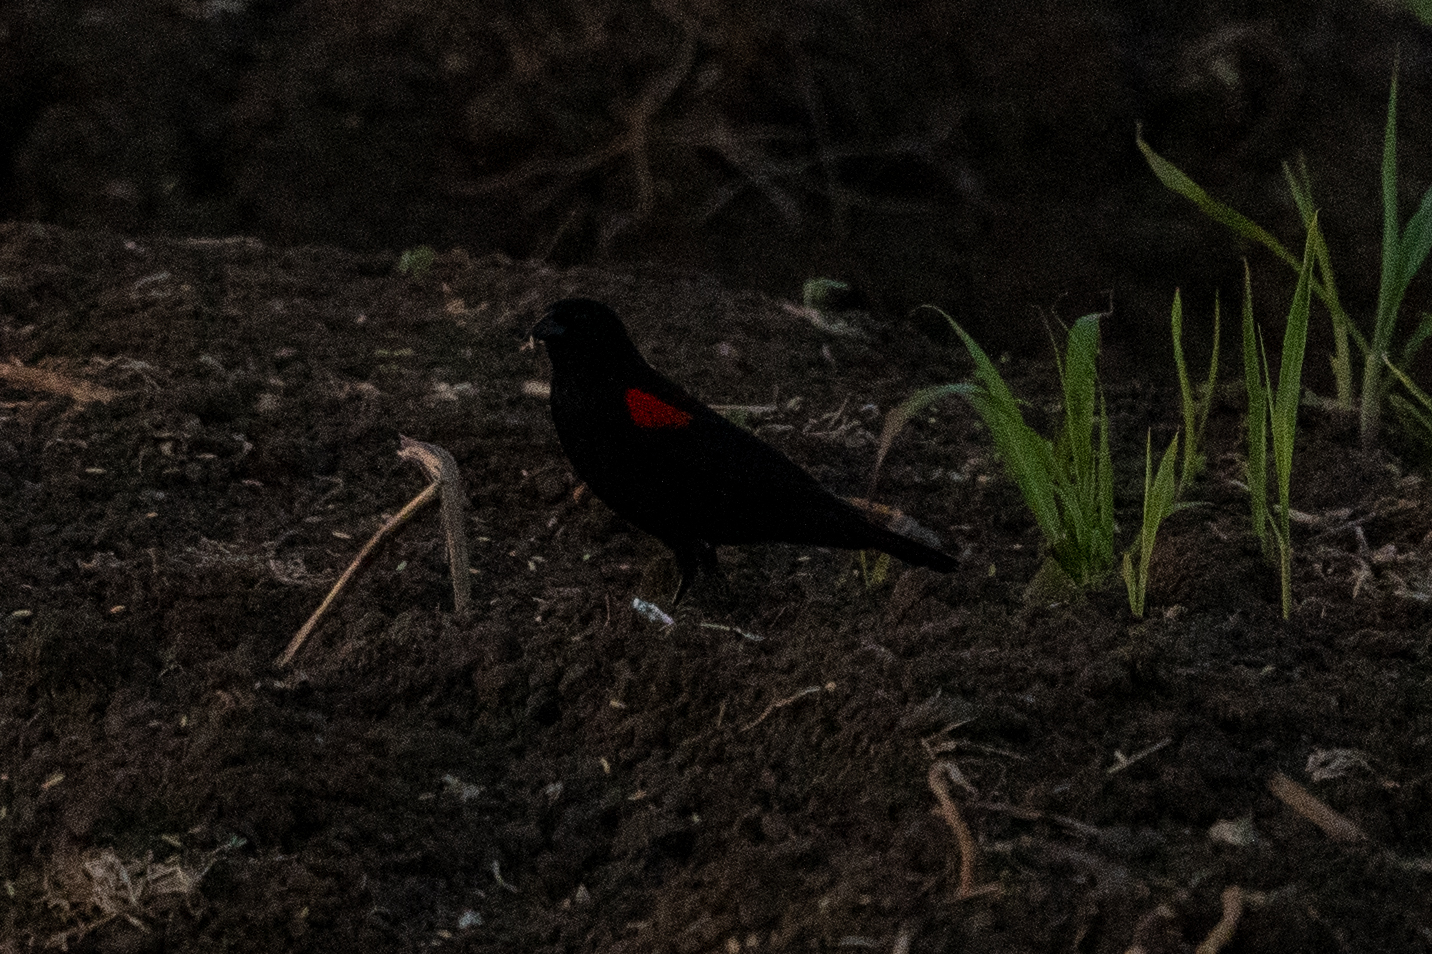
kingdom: Animalia
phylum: Chordata
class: Aves
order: Passeriformes
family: Icteridae
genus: Agelaius
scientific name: Agelaius phoeniceus
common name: Red-winged blackbird
